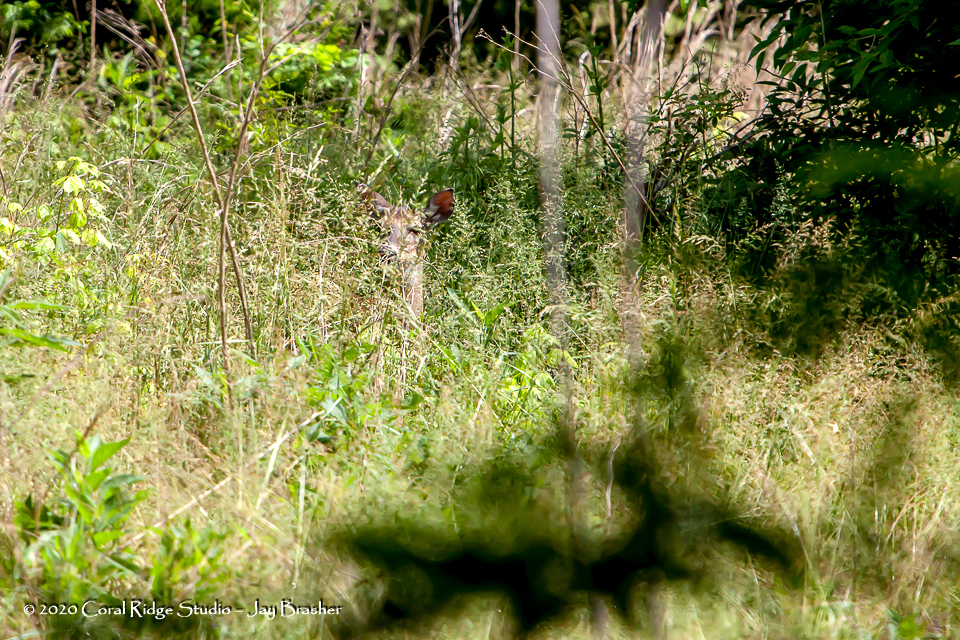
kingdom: Animalia
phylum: Chordata
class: Mammalia
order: Artiodactyla
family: Cervidae
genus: Odocoileus
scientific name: Odocoileus virginianus
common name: White-tailed deer
